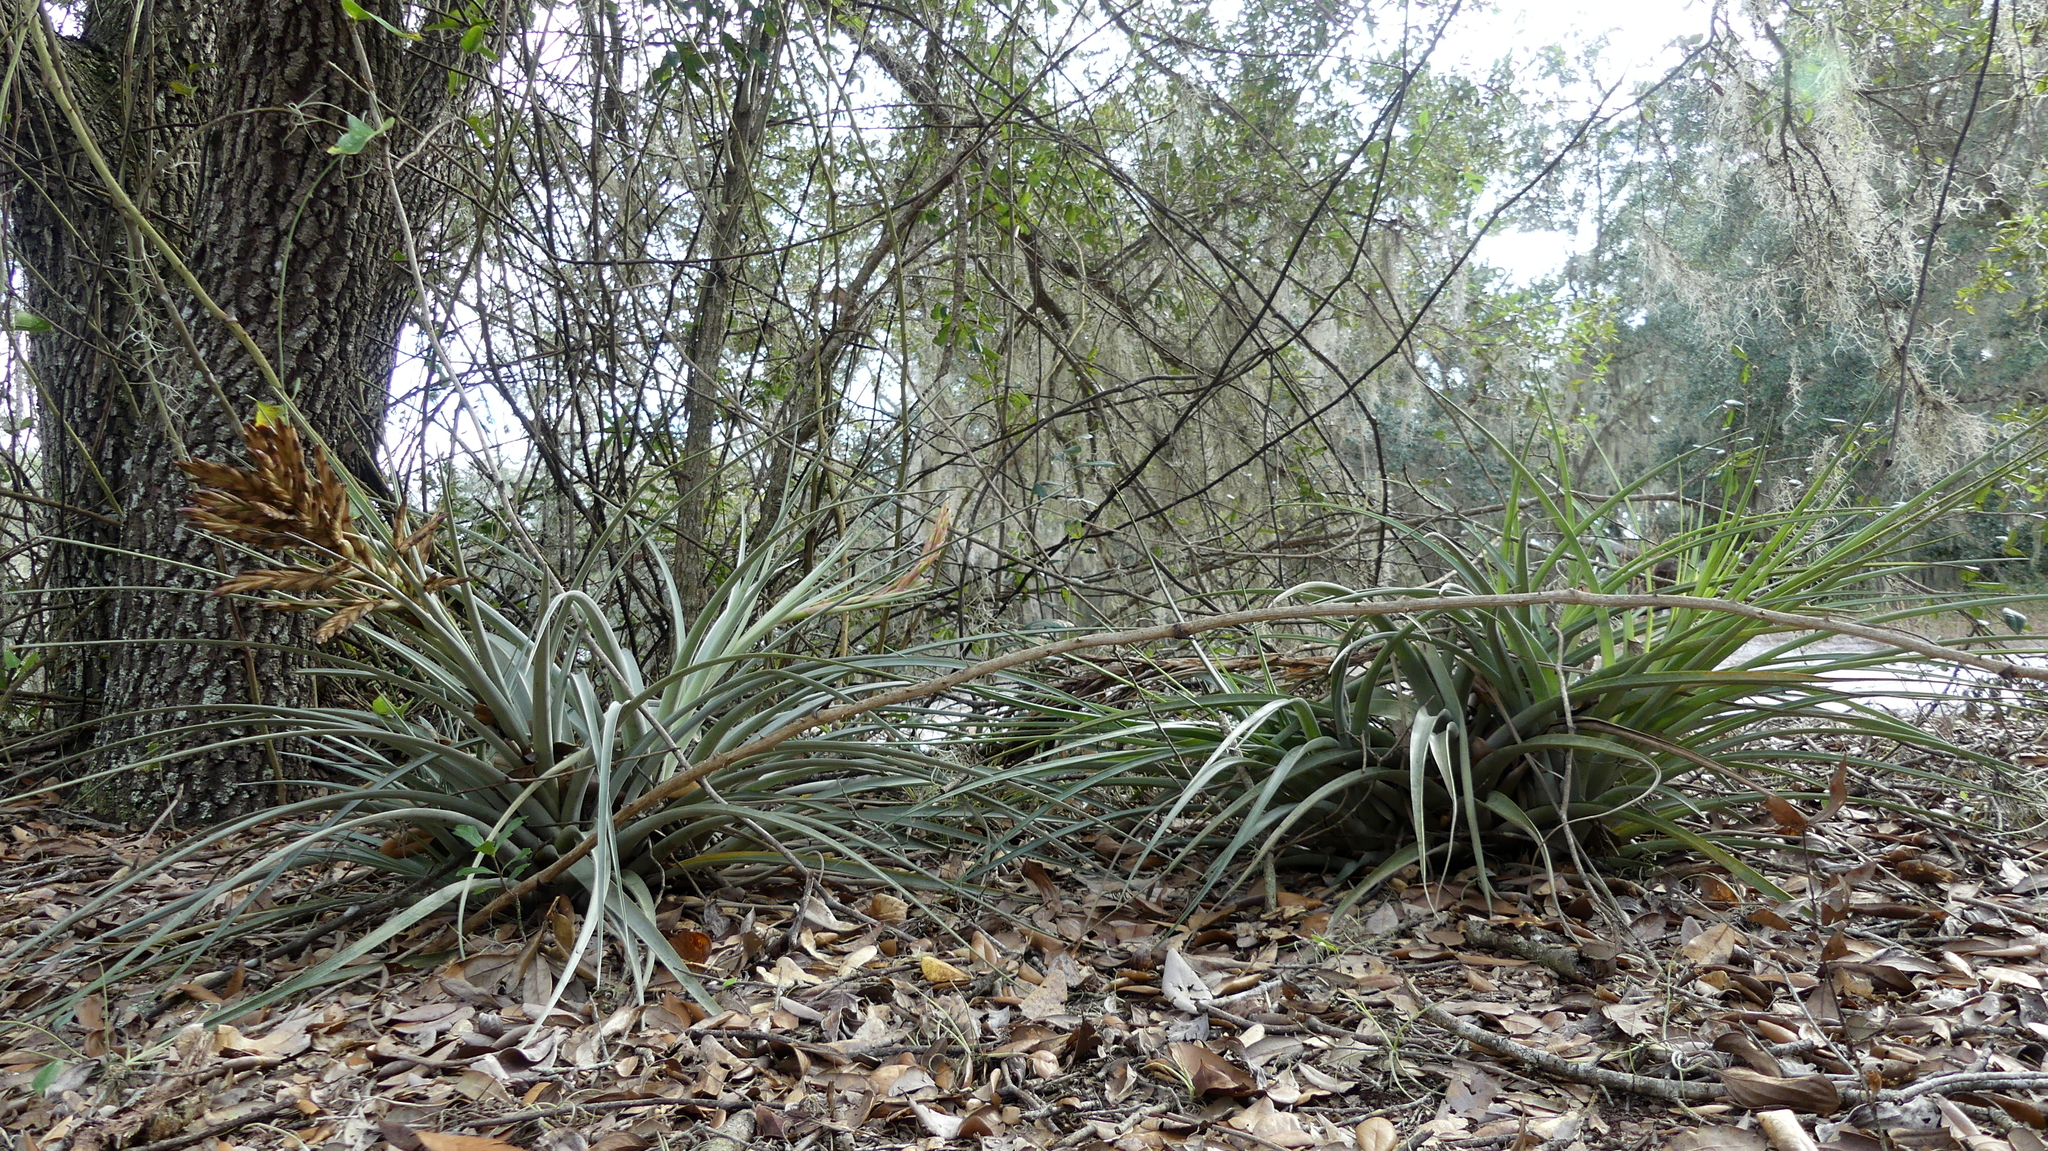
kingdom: Plantae
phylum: Tracheophyta
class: Liliopsida
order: Poales
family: Bromeliaceae
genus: Tillandsia
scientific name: Tillandsia fasciculata
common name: Giant airplant
